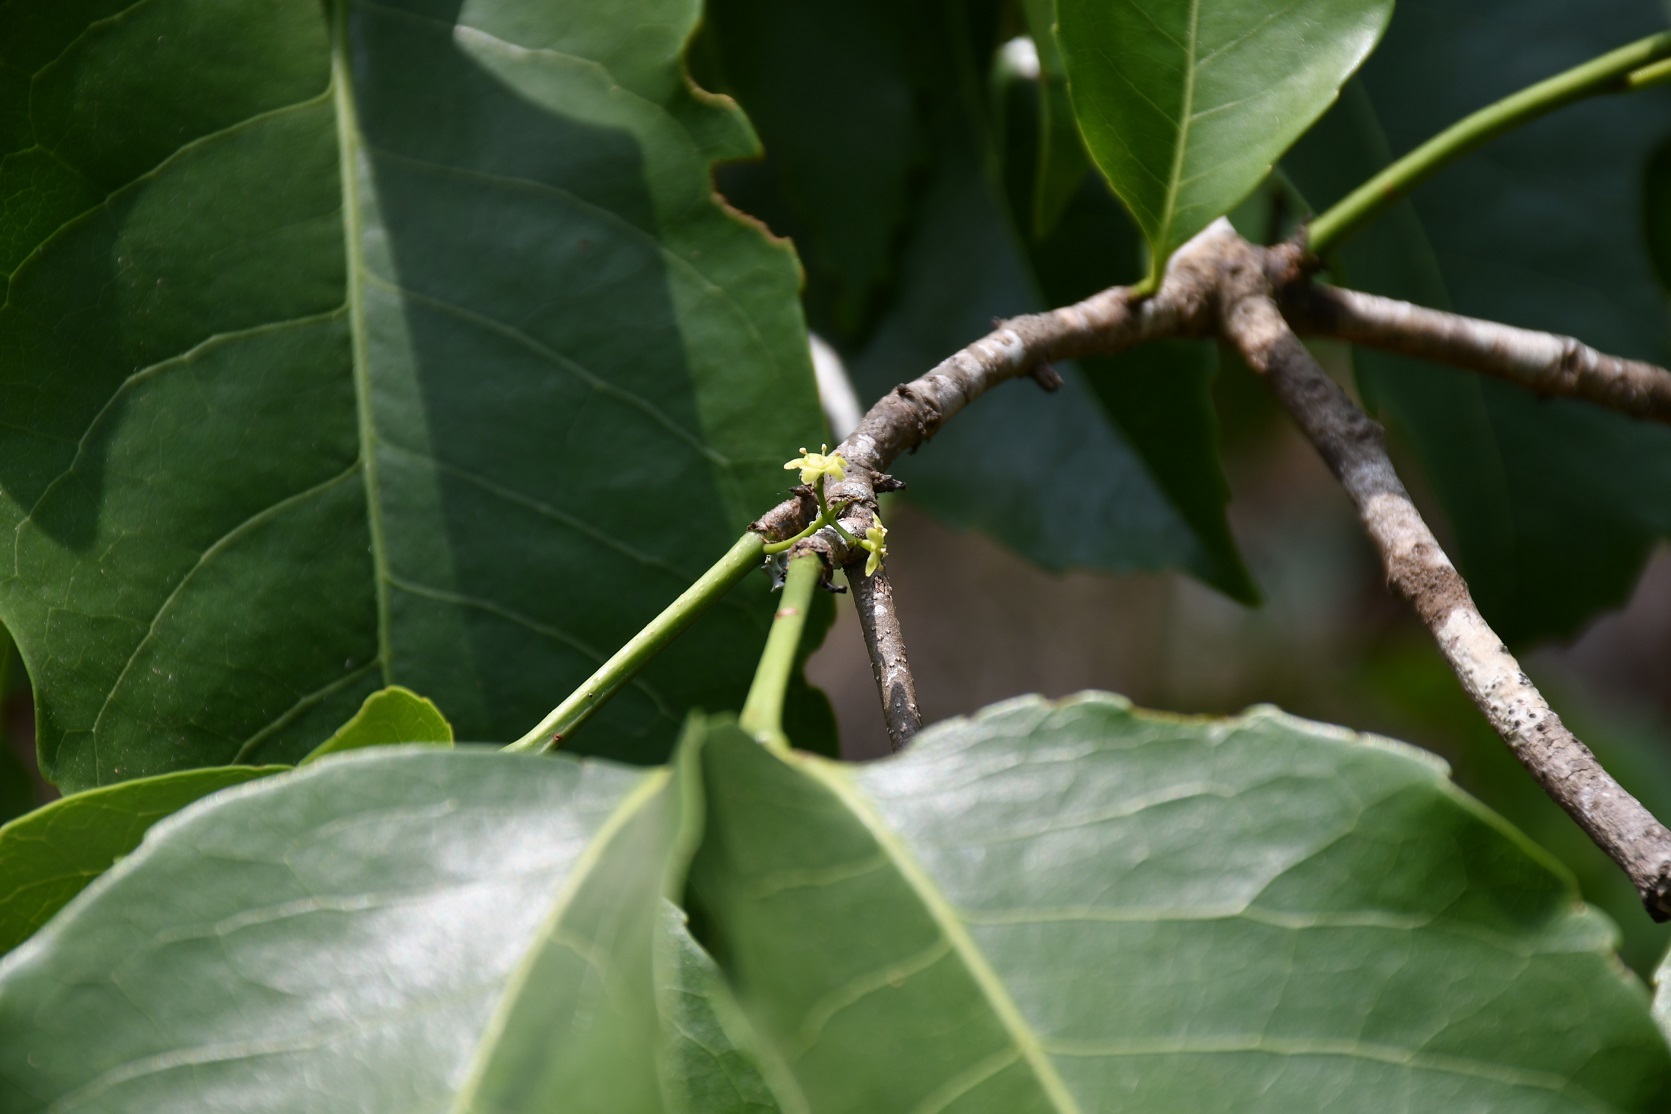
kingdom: Plantae
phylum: Tracheophyta
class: Magnoliopsida
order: Celastrales
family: Celastraceae
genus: Elaeodendron
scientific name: Elaeodendron xylocarpum
